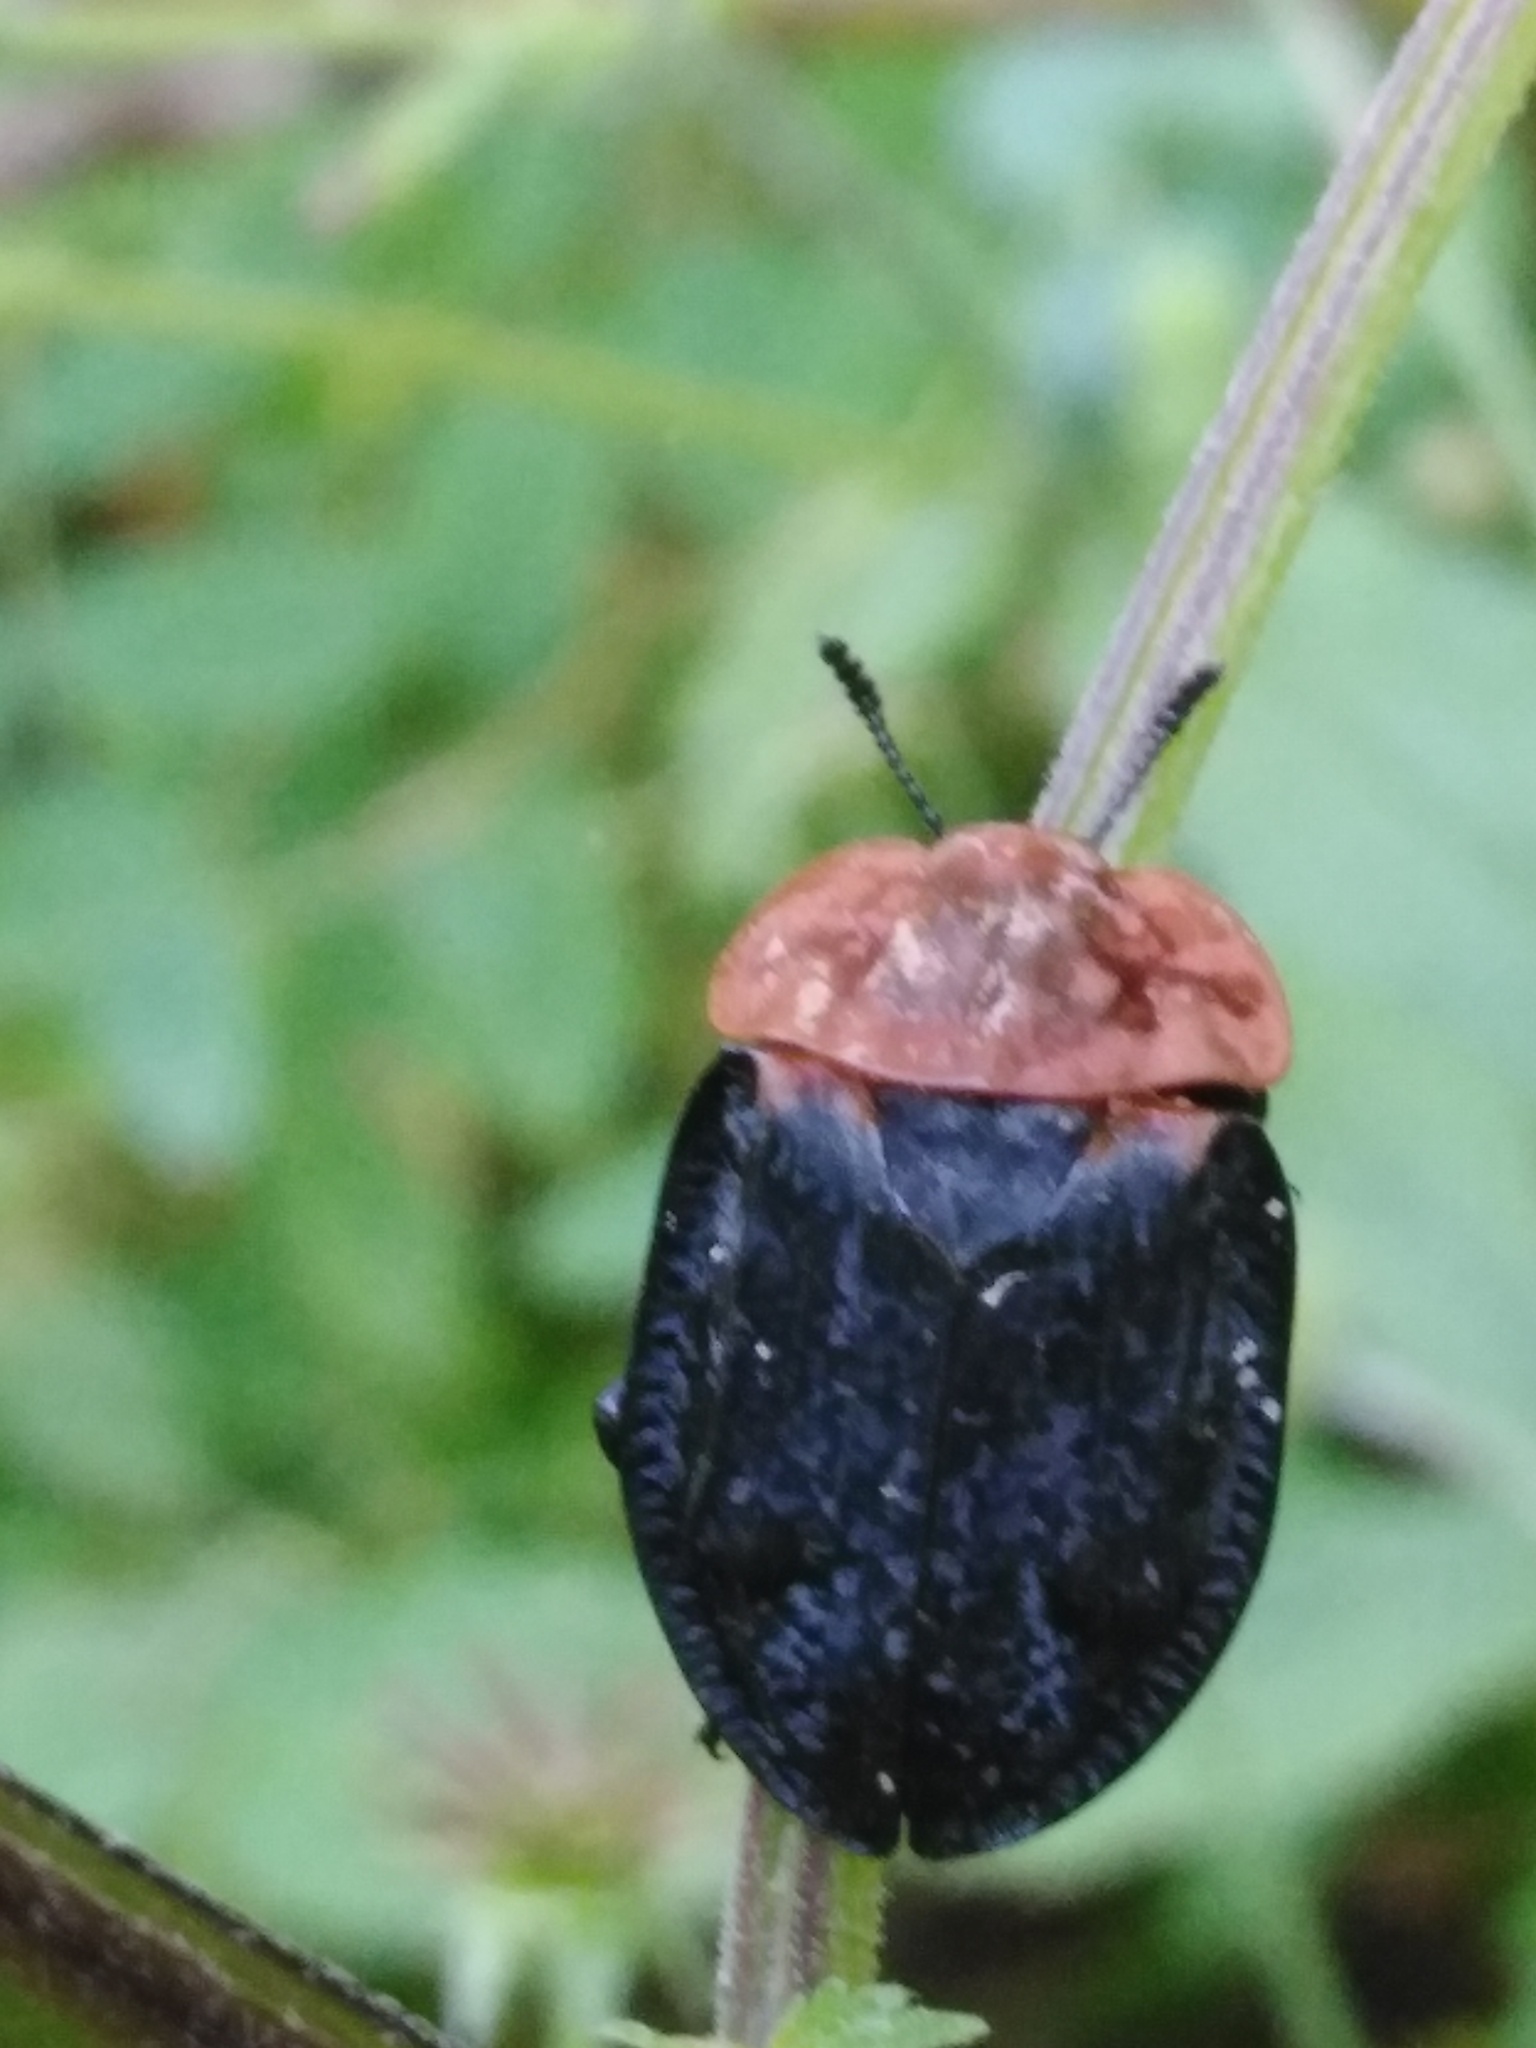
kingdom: Animalia
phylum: Arthropoda
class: Insecta
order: Coleoptera
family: Staphylinidae
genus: Oiceoptoma
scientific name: Oiceoptoma thoracicum
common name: Red-breasted carrion beetle
